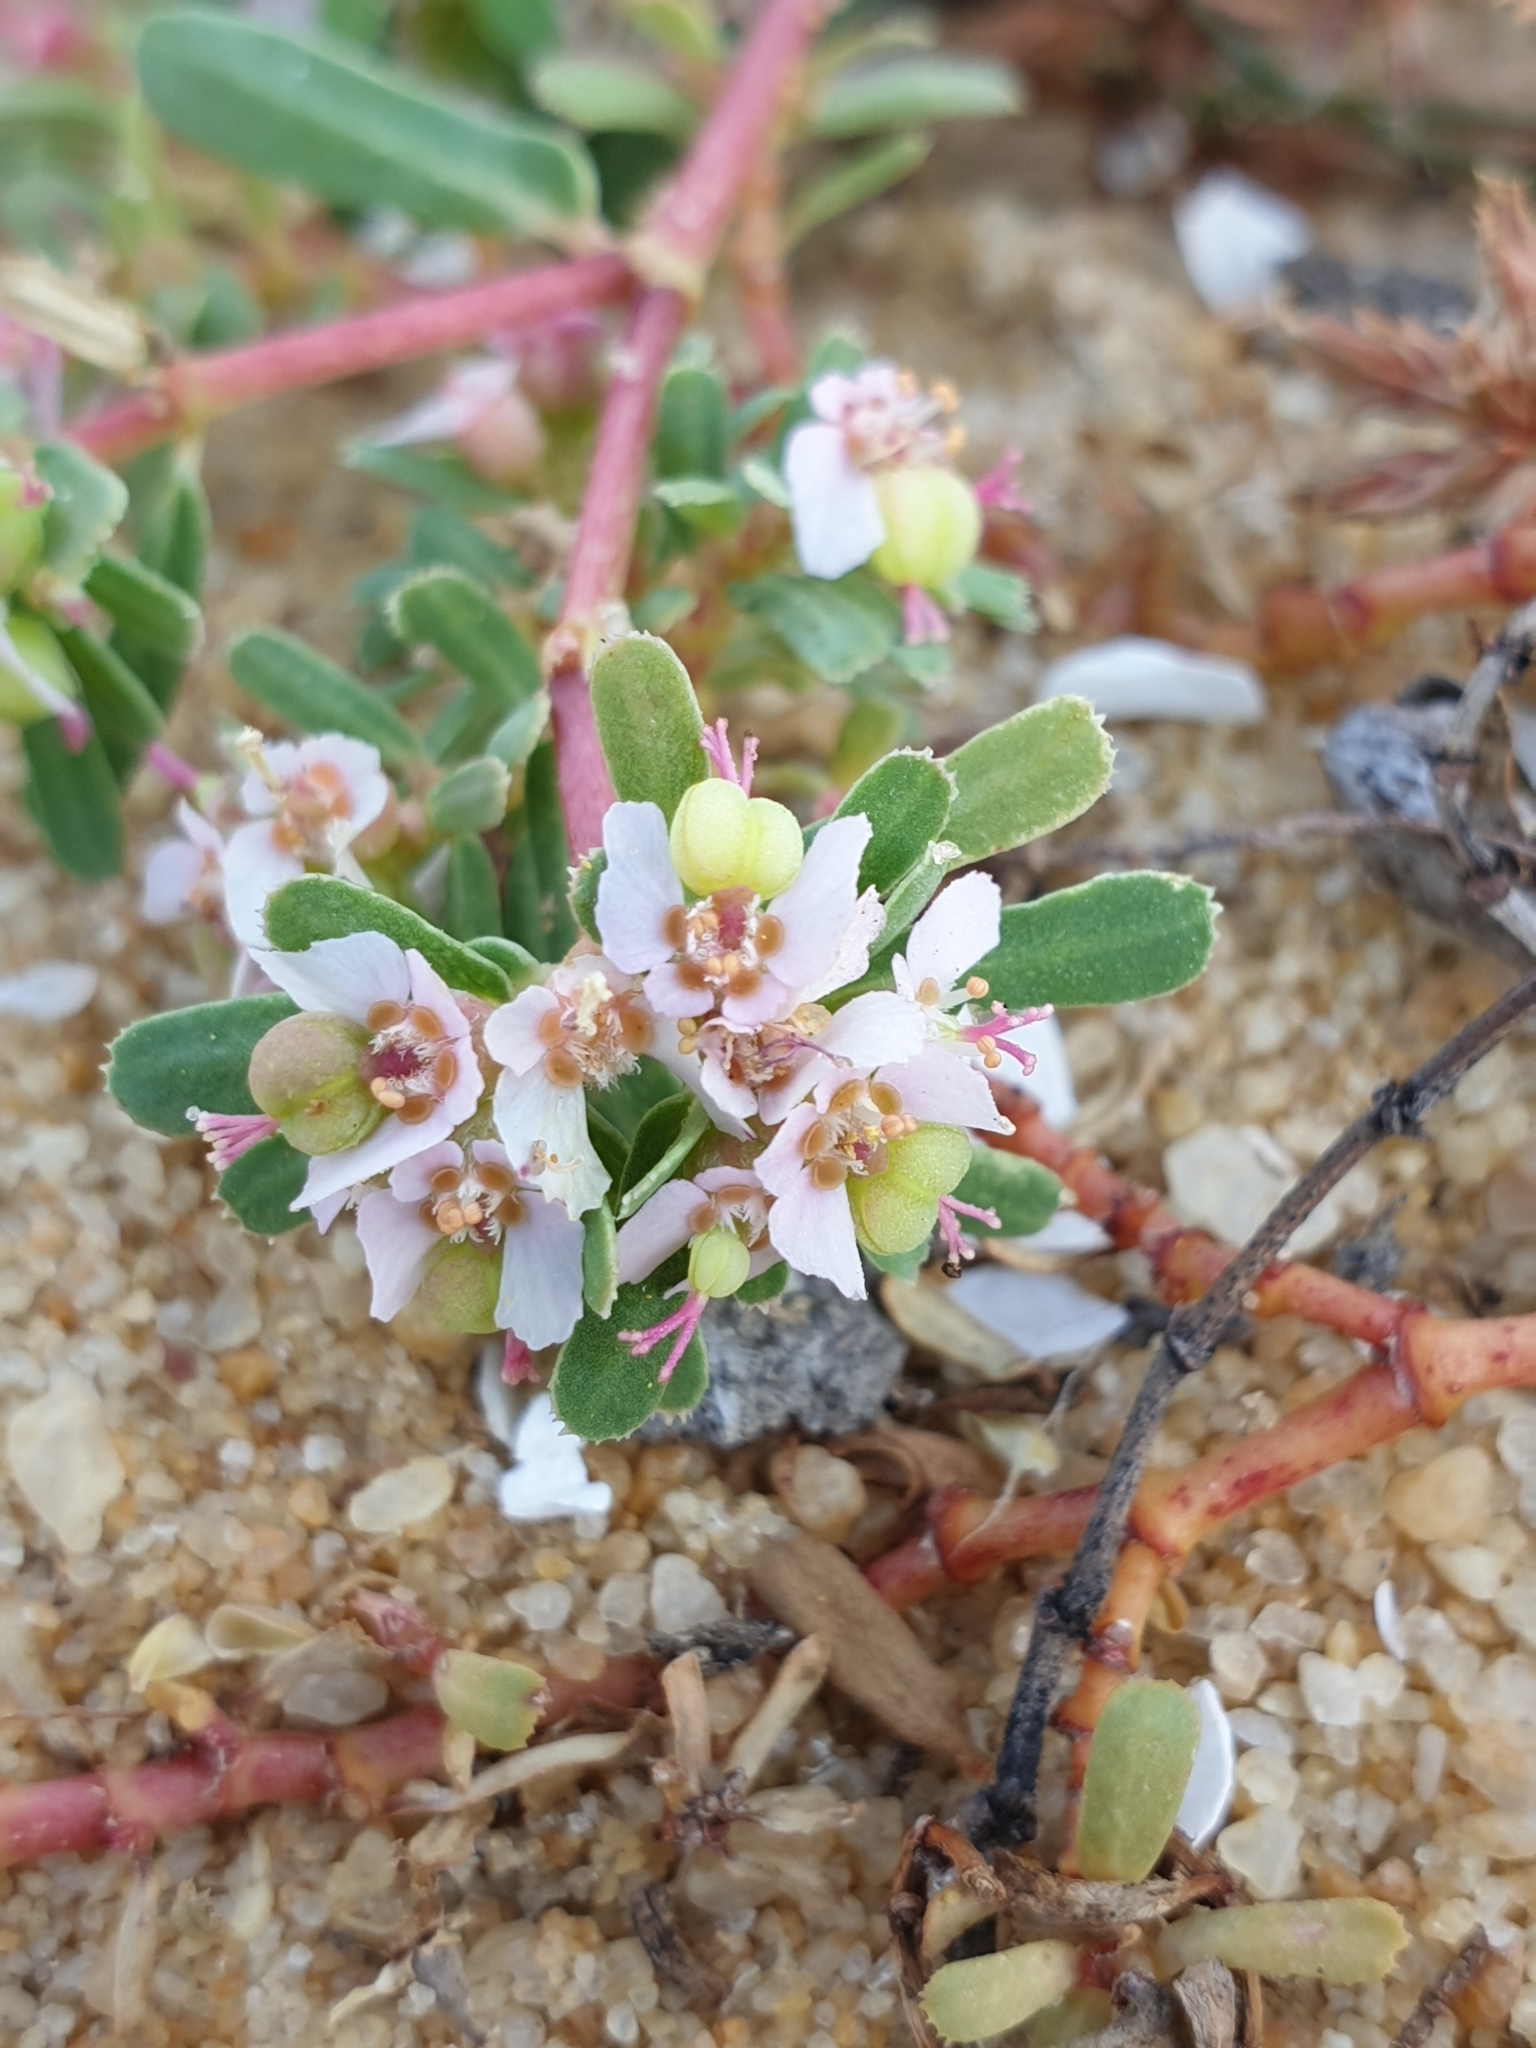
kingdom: Plantae
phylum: Tracheophyta
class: Magnoliopsida
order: Malpighiales
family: Euphorbiaceae
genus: Euphorbia
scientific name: Euphorbia rosea
